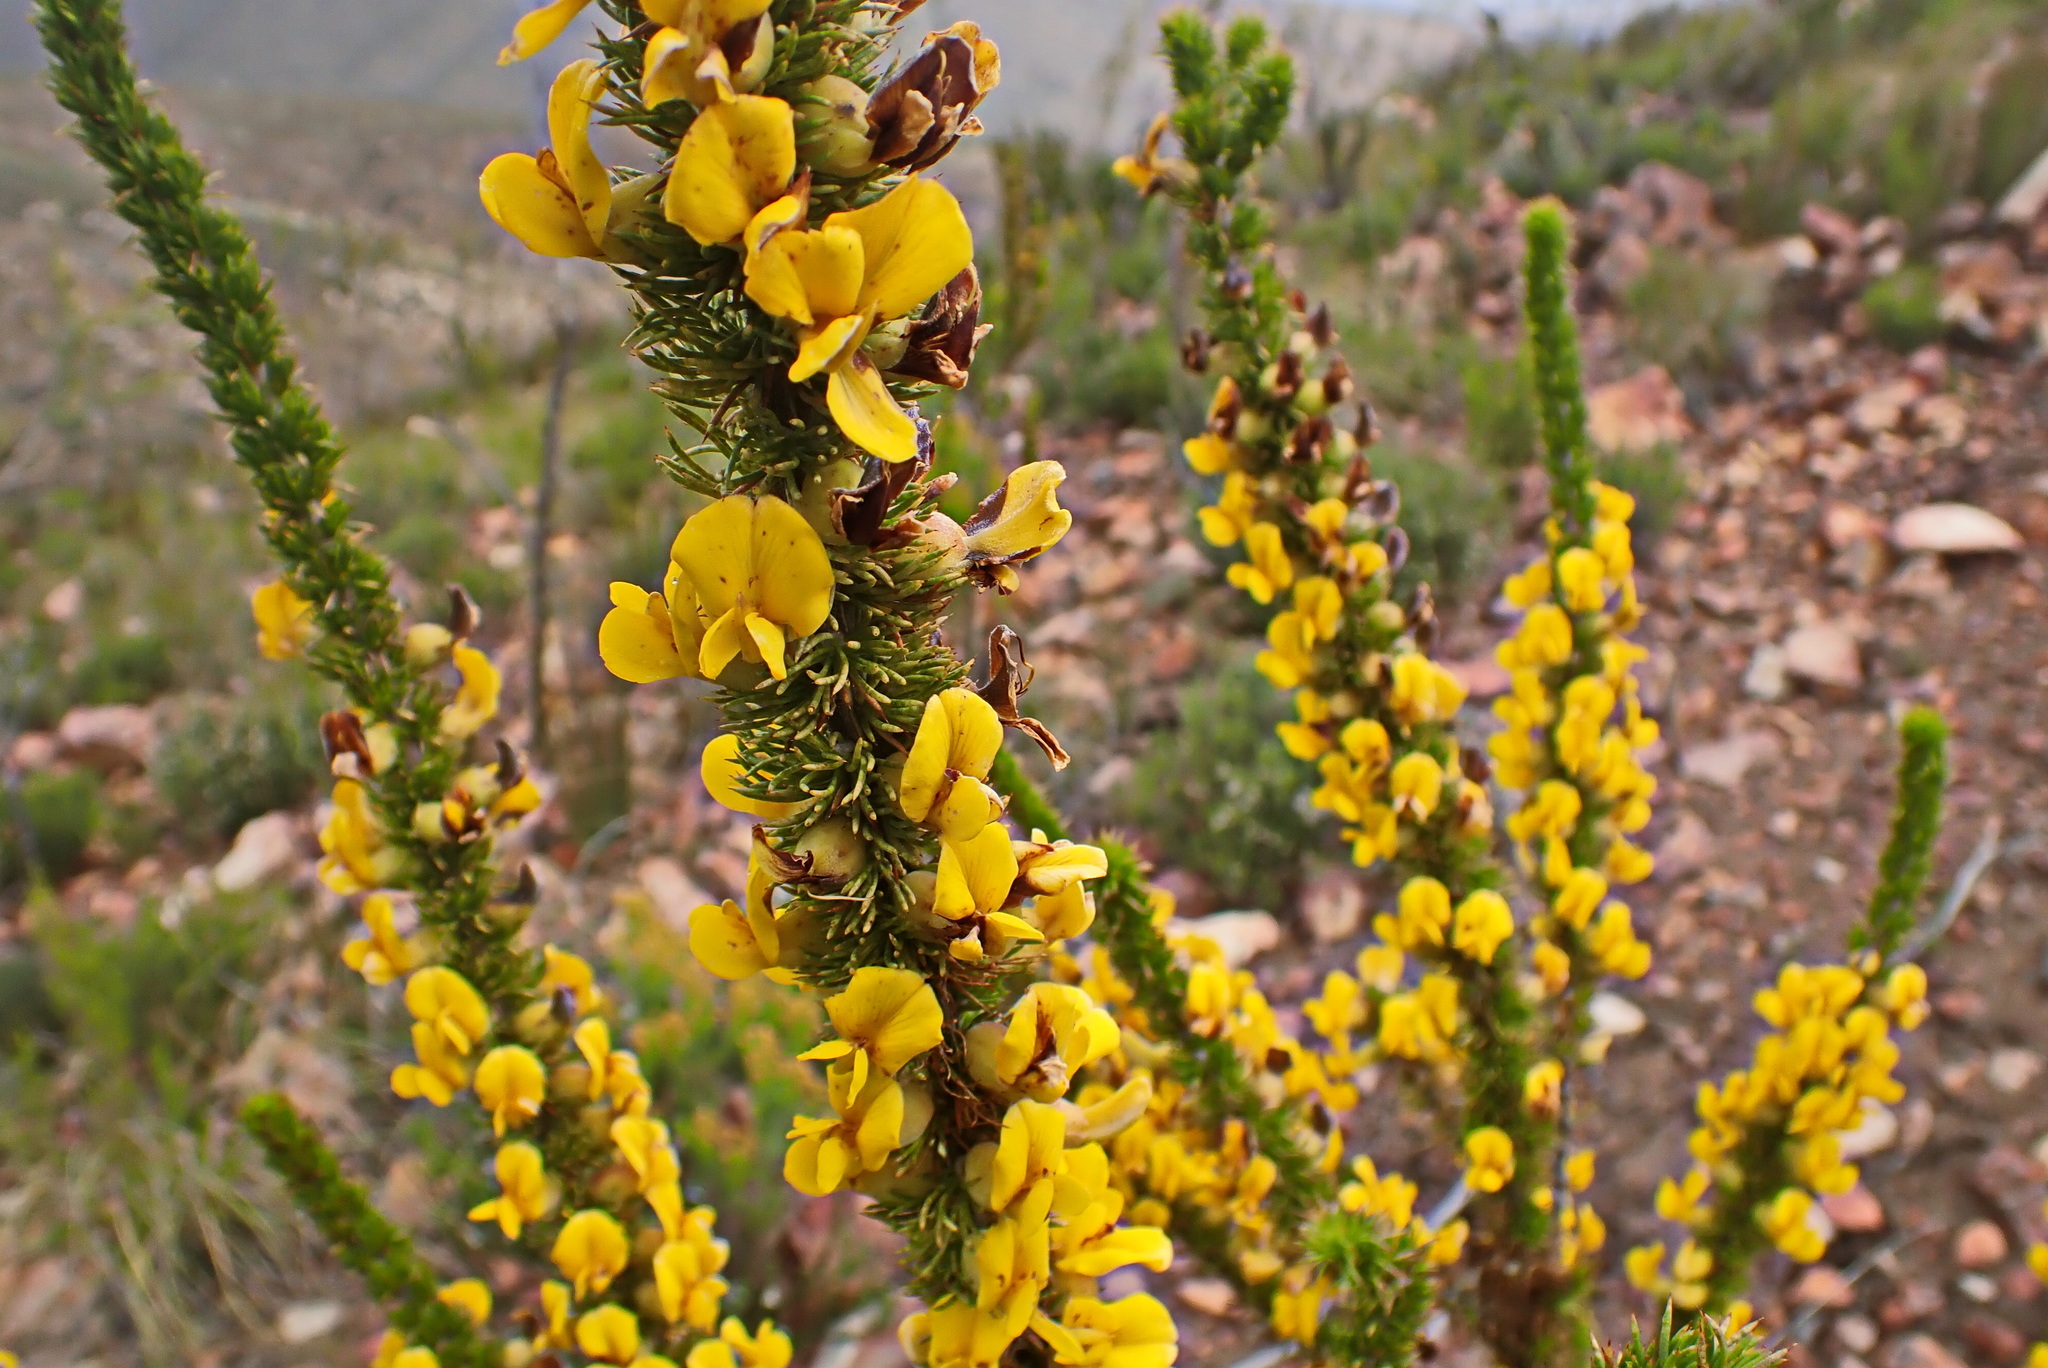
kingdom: Plantae
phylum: Tracheophyta
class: Magnoliopsida
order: Fabales
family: Fabaceae
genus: Aspalathus
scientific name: Aspalathus sceptrumaureum
